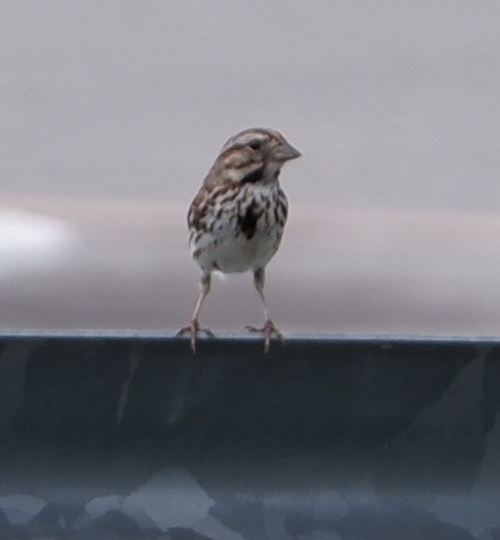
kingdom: Animalia
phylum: Chordata
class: Aves
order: Passeriformes
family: Passerellidae
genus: Melospiza
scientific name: Melospiza melodia
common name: Song sparrow
